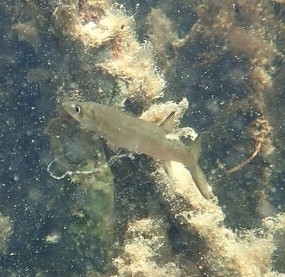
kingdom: Animalia
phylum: Chordata
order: Perciformes
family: Sphyraenidae
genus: Sphyraena
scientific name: Sphyraena barracuda
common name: Great barracuda
